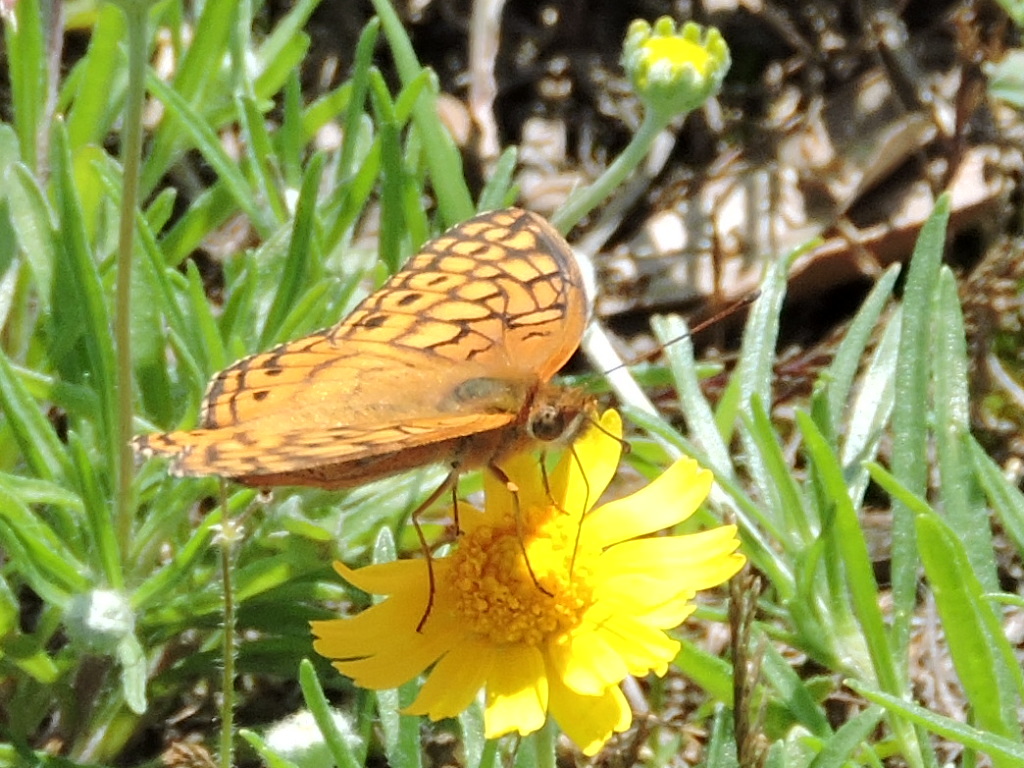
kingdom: Animalia
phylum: Arthropoda
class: Insecta
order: Lepidoptera
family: Nymphalidae
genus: Euptoieta
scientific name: Euptoieta claudia
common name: Variegated fritillary
